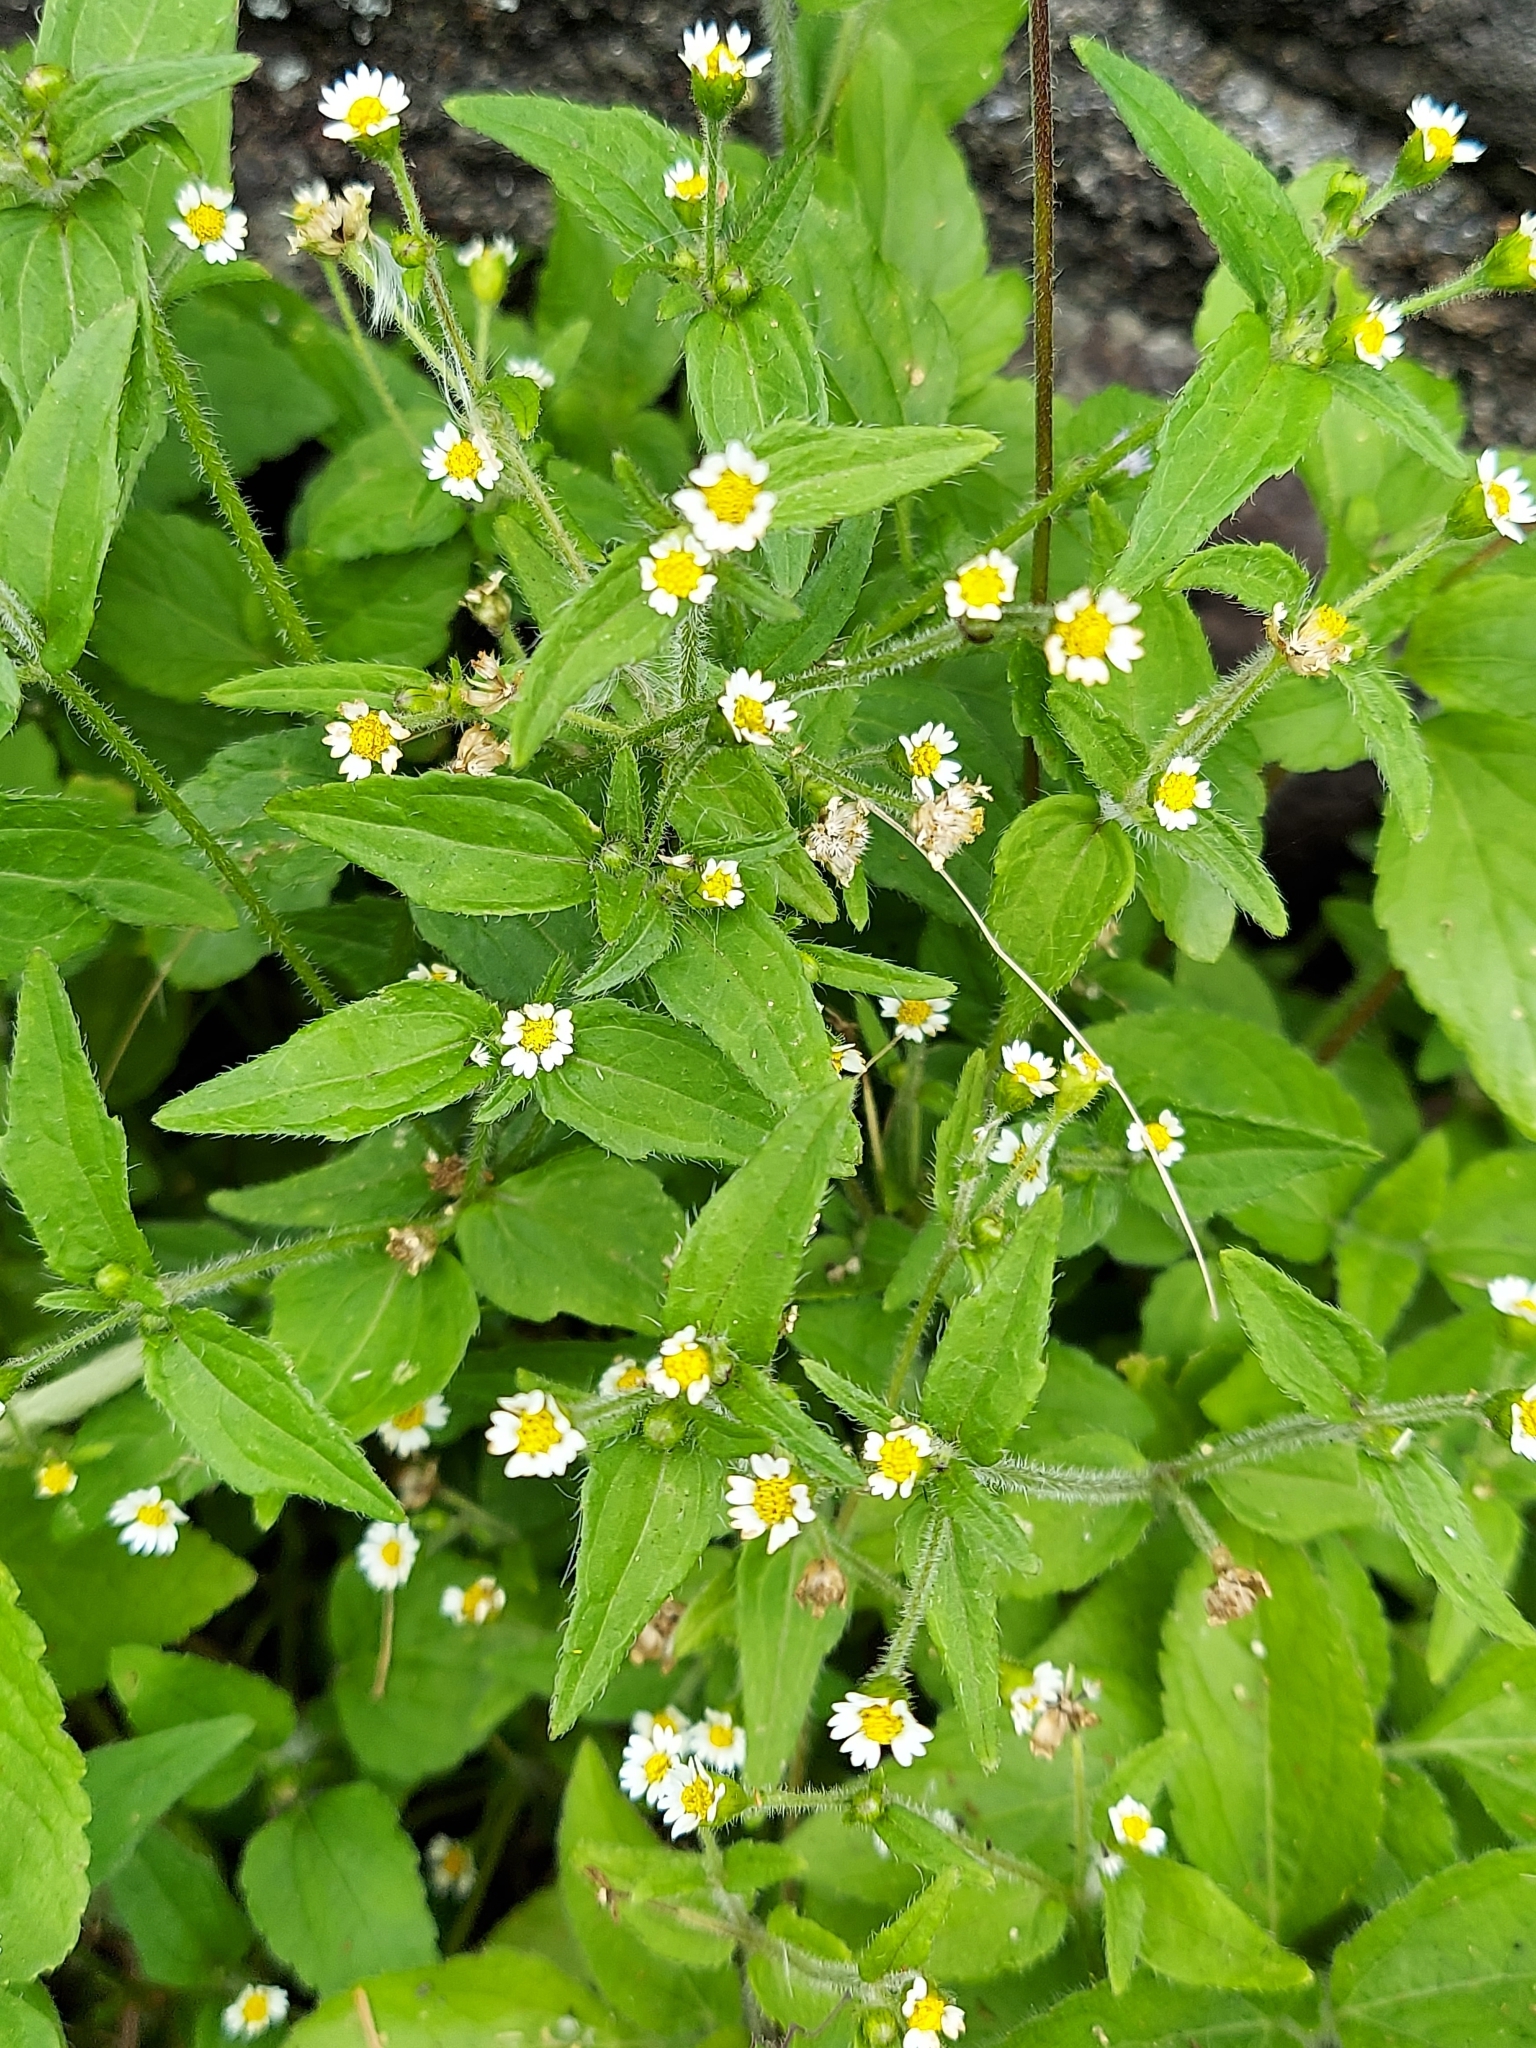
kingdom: Plantae
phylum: Tracheophyta
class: Magnoliopsida
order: Asterales
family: Asteraceae
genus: Galinsoga
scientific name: Galinsoga quadriradiata
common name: Shaggy soldier
